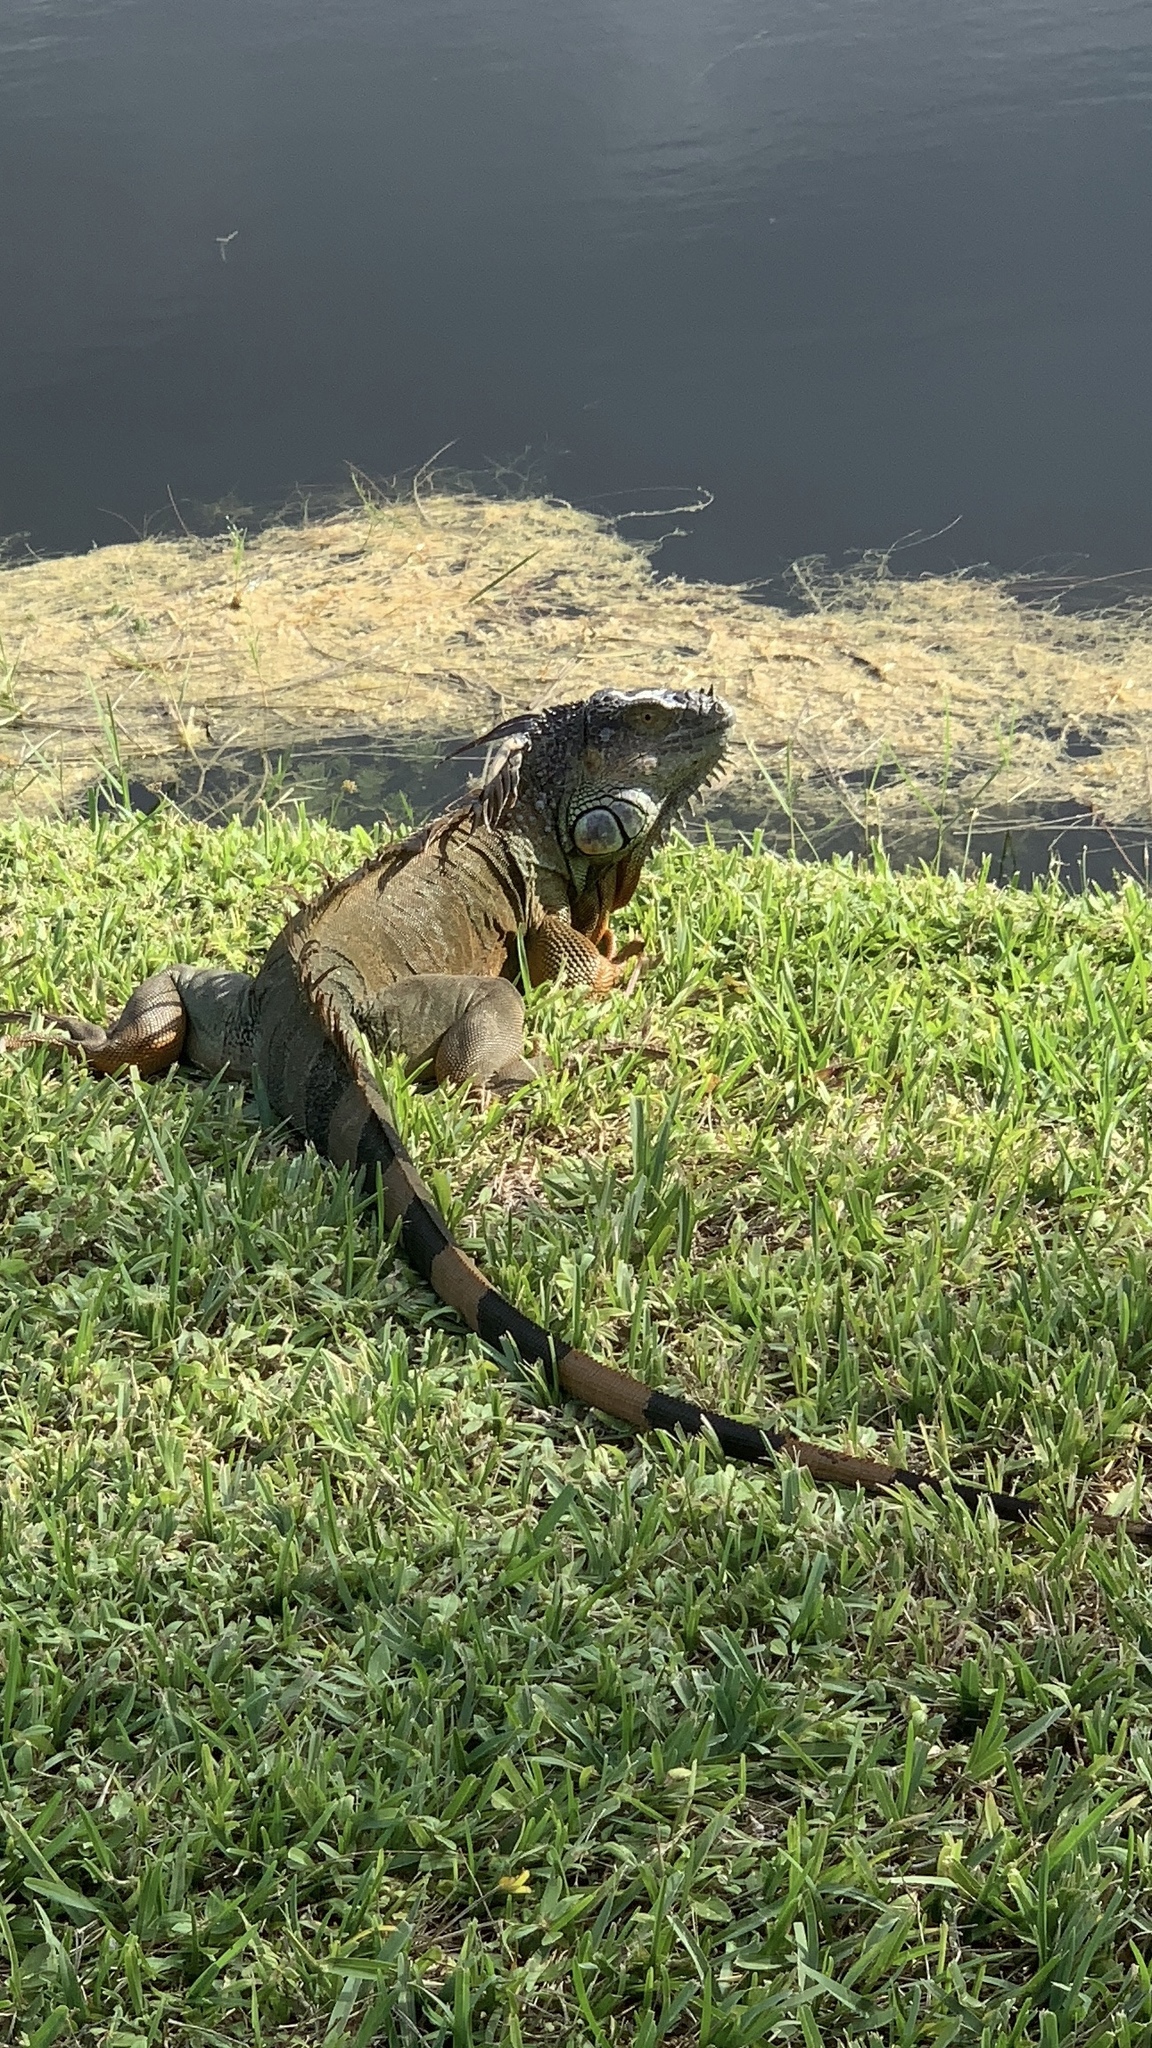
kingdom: Animalia
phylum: Chordata
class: Squamata
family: Iguanidae
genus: Iguana
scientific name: Iguana iguana
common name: Green iguana
